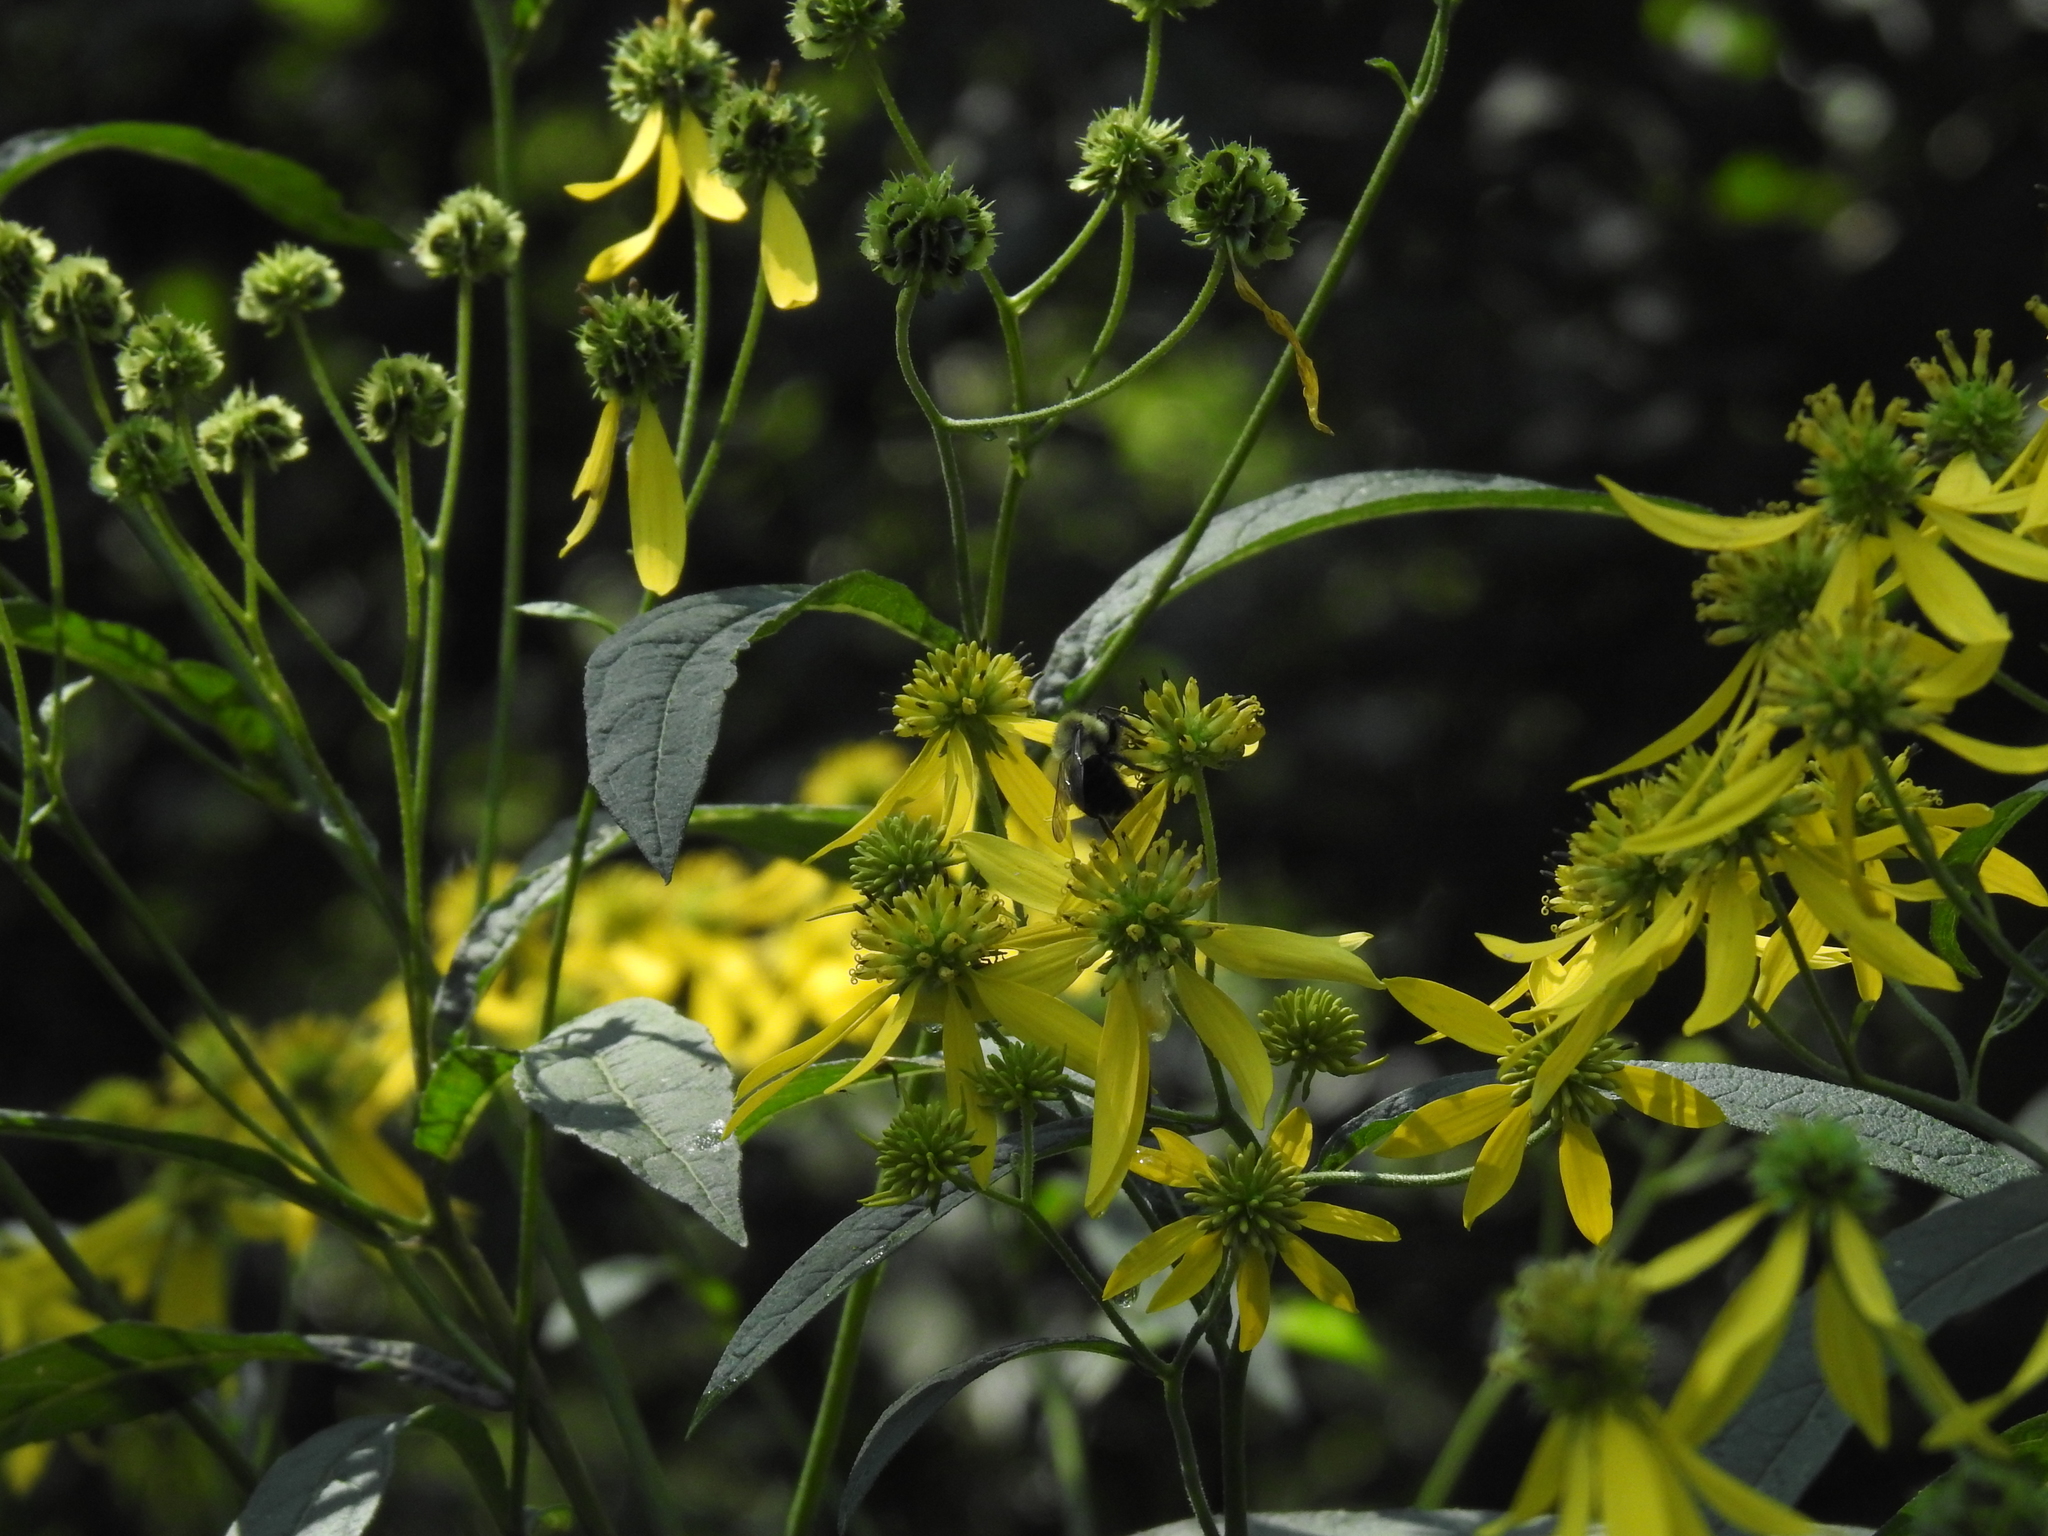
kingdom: Animalia
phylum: Arthropoda
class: Insecta
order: Hymenoptera
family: Apidae
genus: Bombus
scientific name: Bombus impatiens
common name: Common eastern bumble bee
